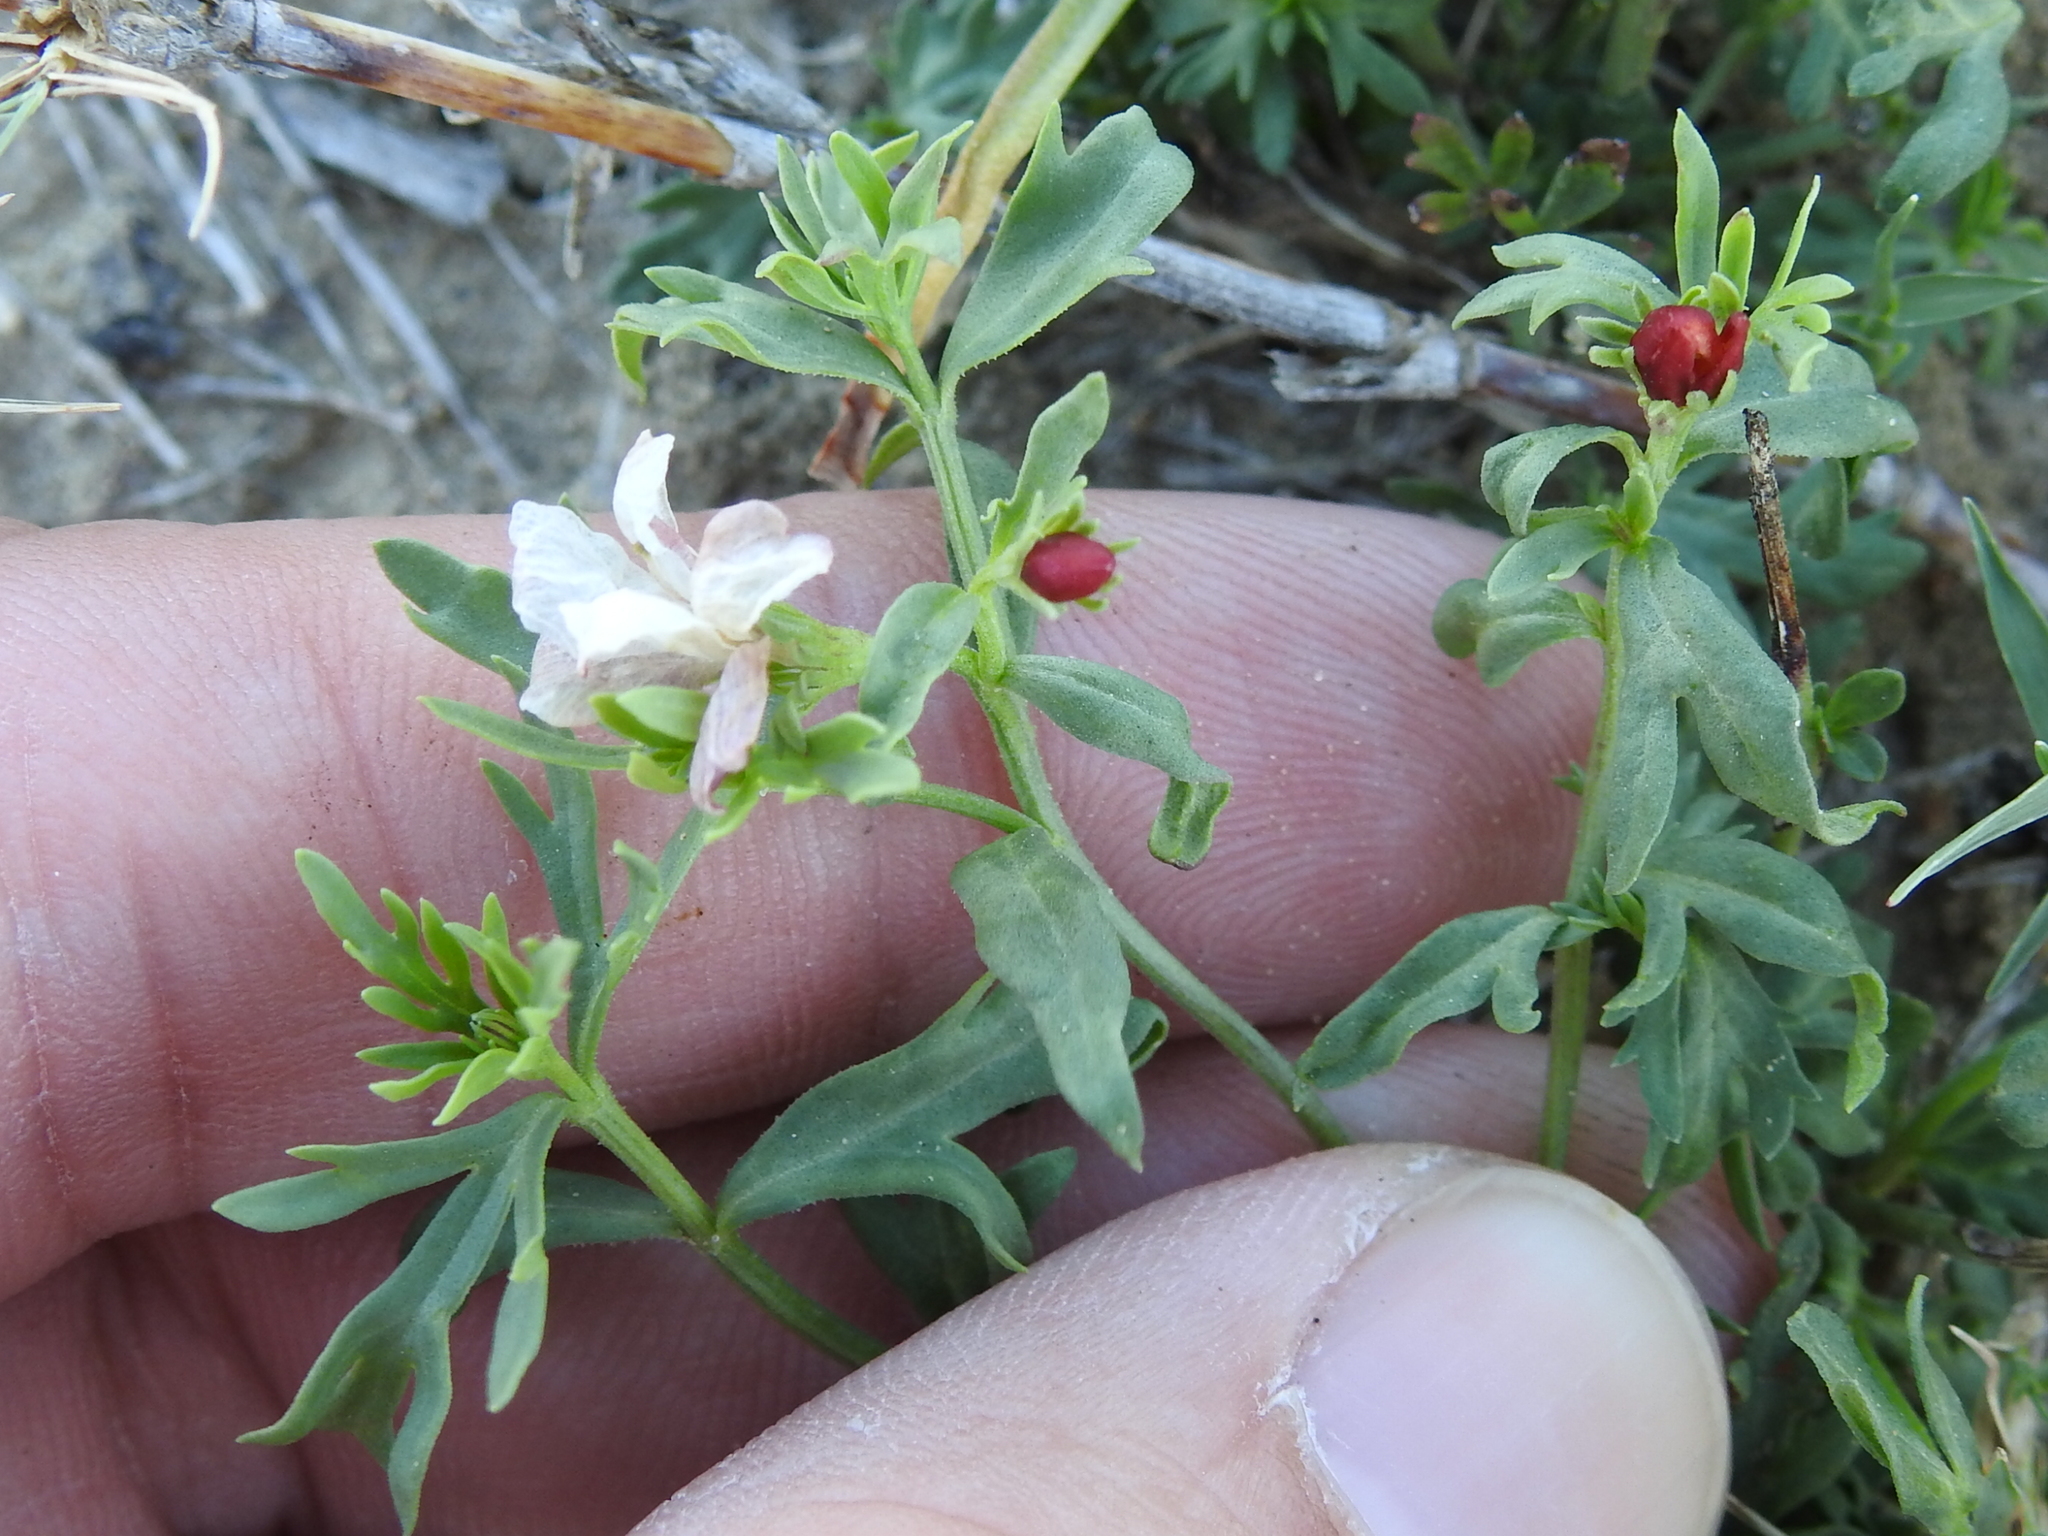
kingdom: Plantae
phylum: Tracheophyta
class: Magnoliopsida
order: Lamiales
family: Oleaceae
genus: Menodora
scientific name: Menodora heterophylla
